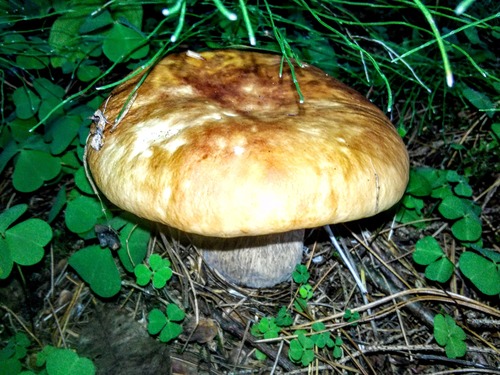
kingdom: Fungi
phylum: Basidiomycota
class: Agaricomycetes
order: Boletales
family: Boletaceae
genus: Boletus
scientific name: Boletus edulis
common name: Cep
